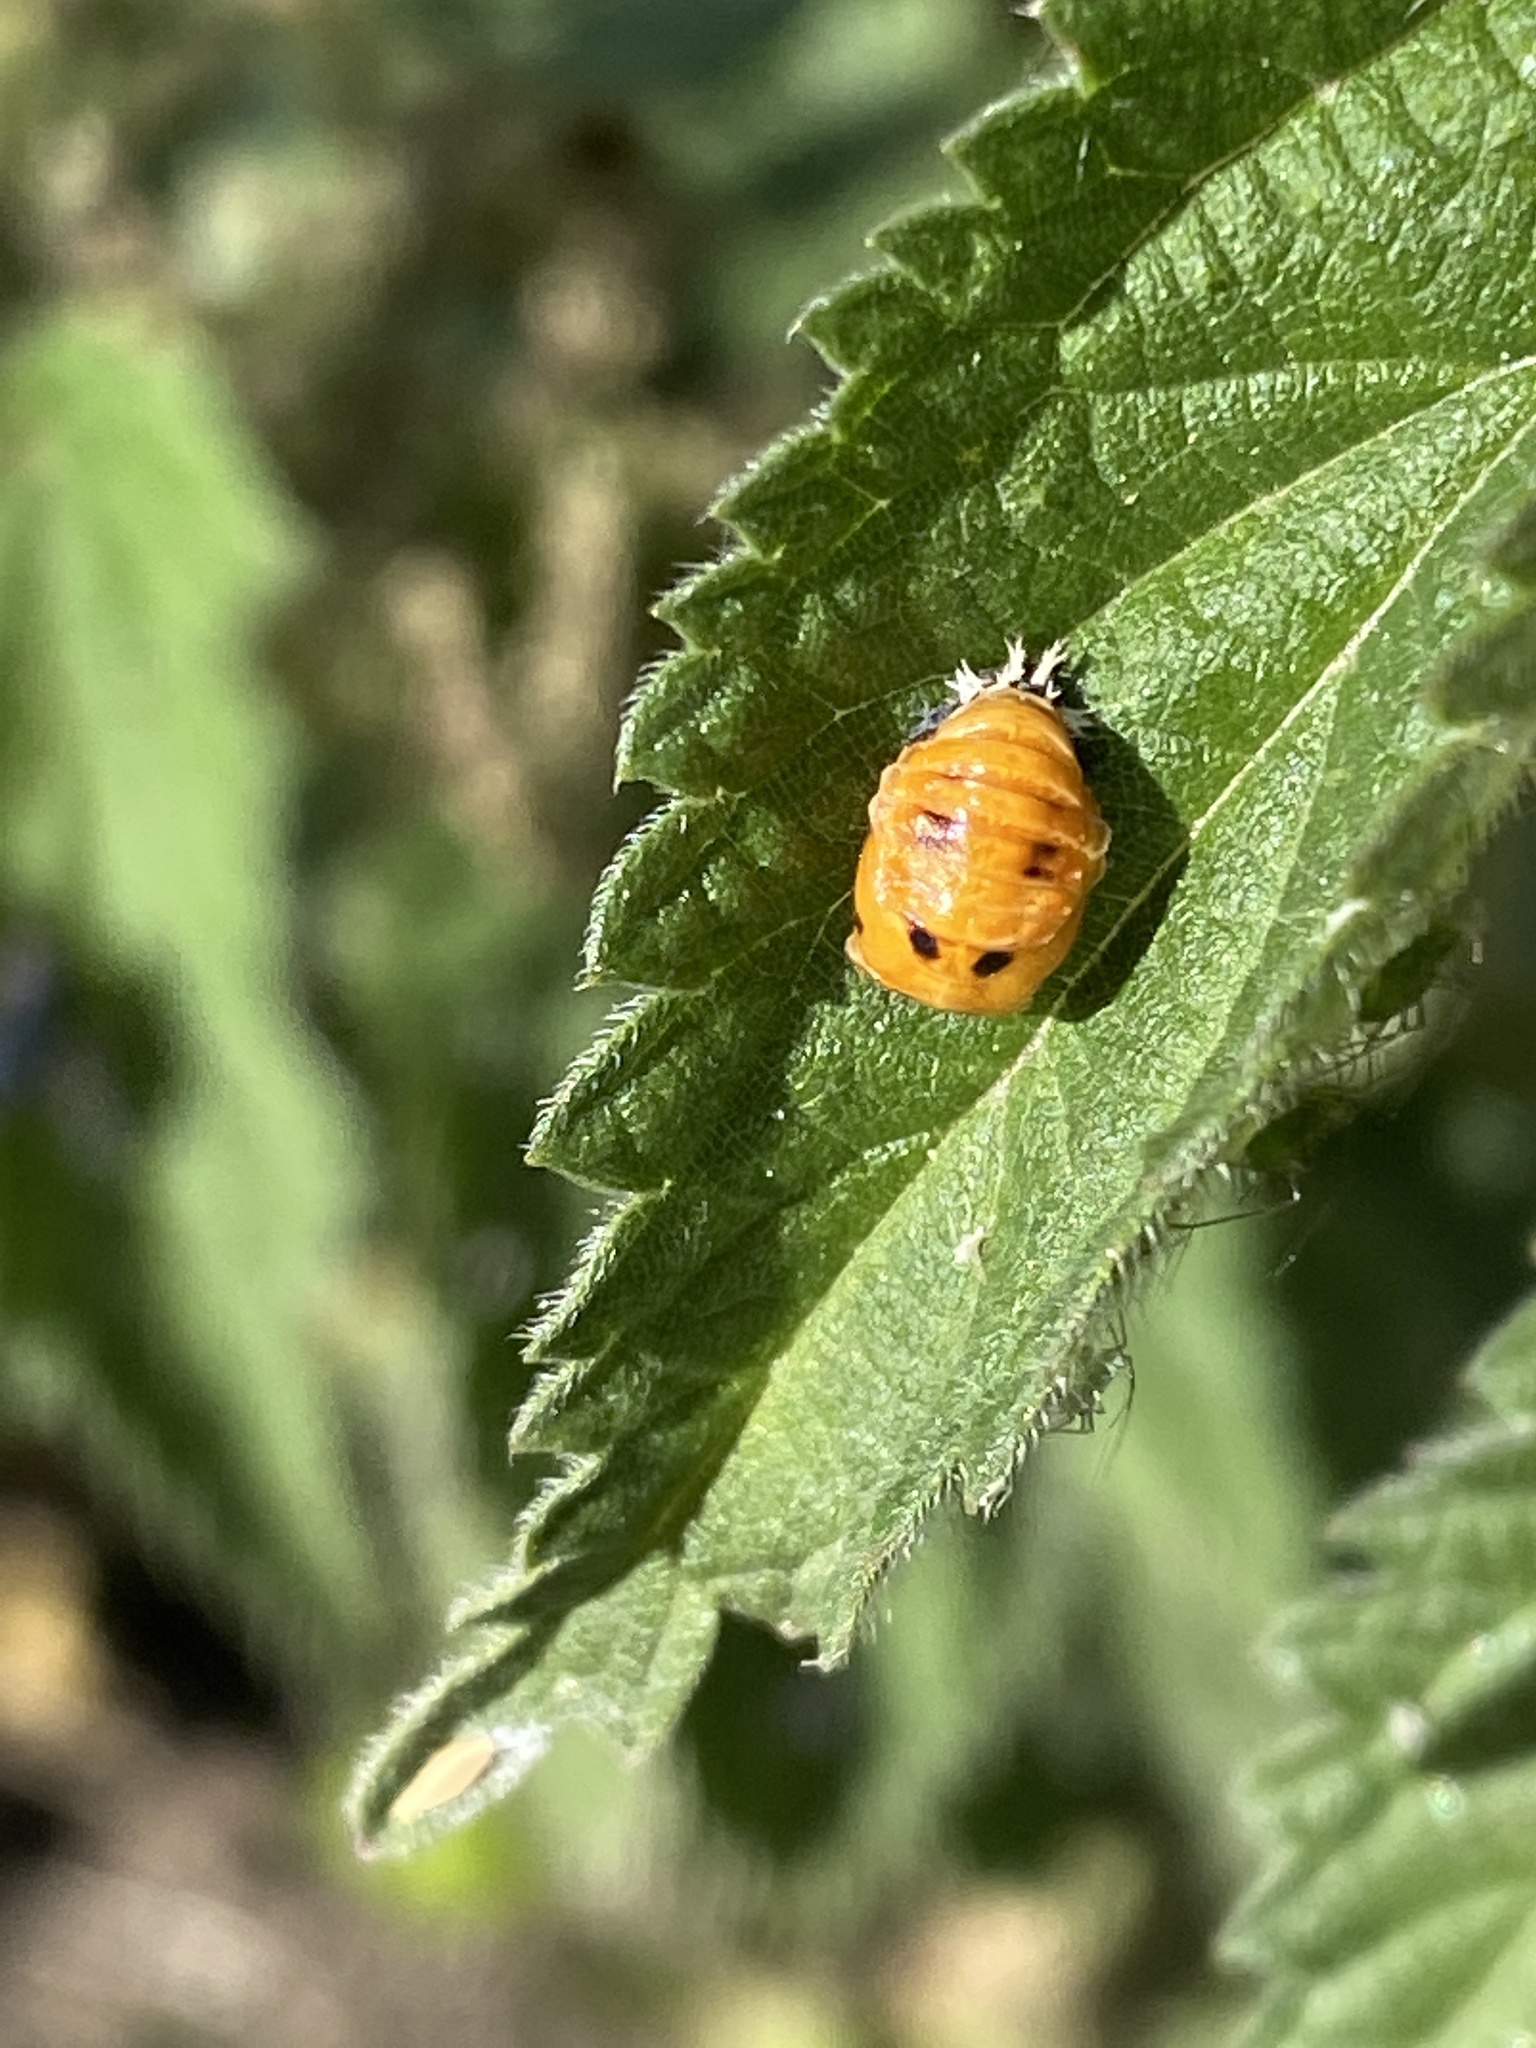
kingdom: Animalia
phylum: Arthropoda
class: Insecta
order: Coleoptera
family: Coccinellidae
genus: Harmonia
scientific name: Harmonia axyridis
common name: Harlequin ladybird
